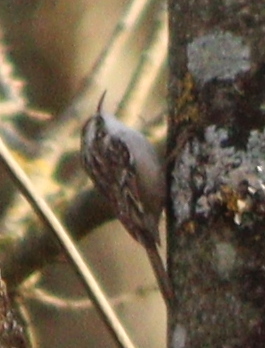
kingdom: Animalia
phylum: Chordata
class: Aves
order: Passeriformes
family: Certhiidae
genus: Certhia
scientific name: Certhia brachydactyla
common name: Short-toed treecreeper
